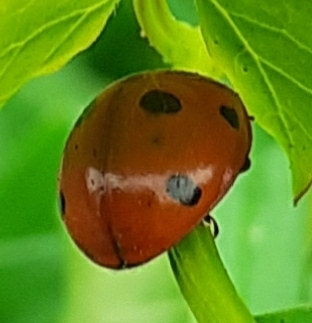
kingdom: Animalia
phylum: Arthropoda
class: Insecta
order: Coleoptera
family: Coccinellidae
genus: Coccinella
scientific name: Coccinella septempunctata
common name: Sevenspotted lady beetle
